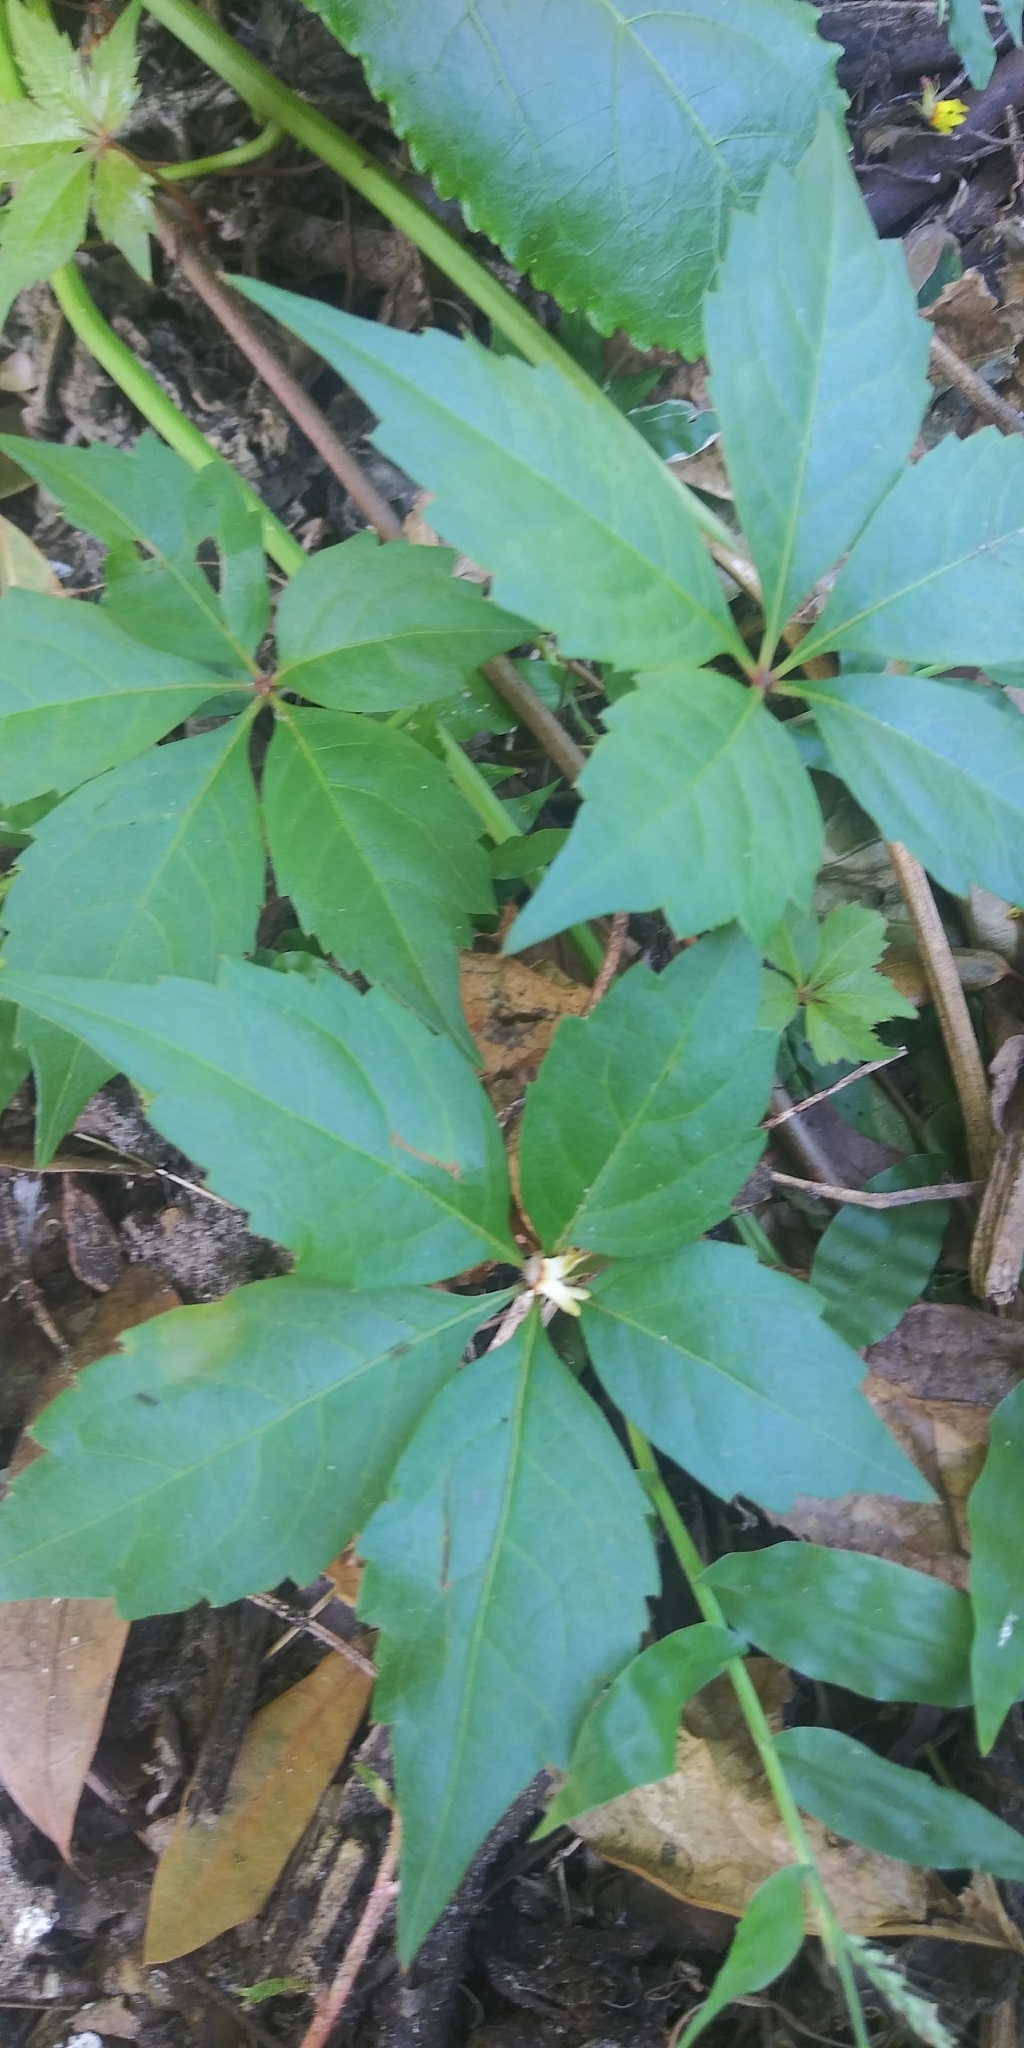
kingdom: Plantae
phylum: Tracheophyta
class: Magnoliopsida
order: Vitales
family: Vitaceae
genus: Parthenocissus
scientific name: Parthenocissus quinquefolia
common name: Virginia-creeper
